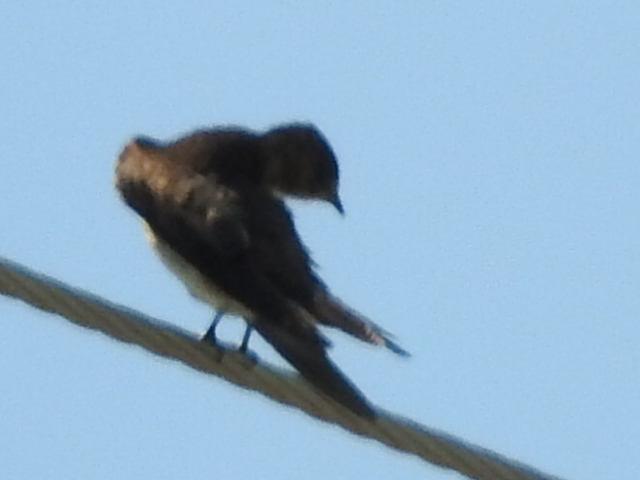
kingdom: Animalia
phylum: Chordata
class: Aves
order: Passeriformes
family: Hirundinidae
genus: Stelgidopteryx
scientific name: Stelgidopteryx serripennis
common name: Northern rough-winged swallow
